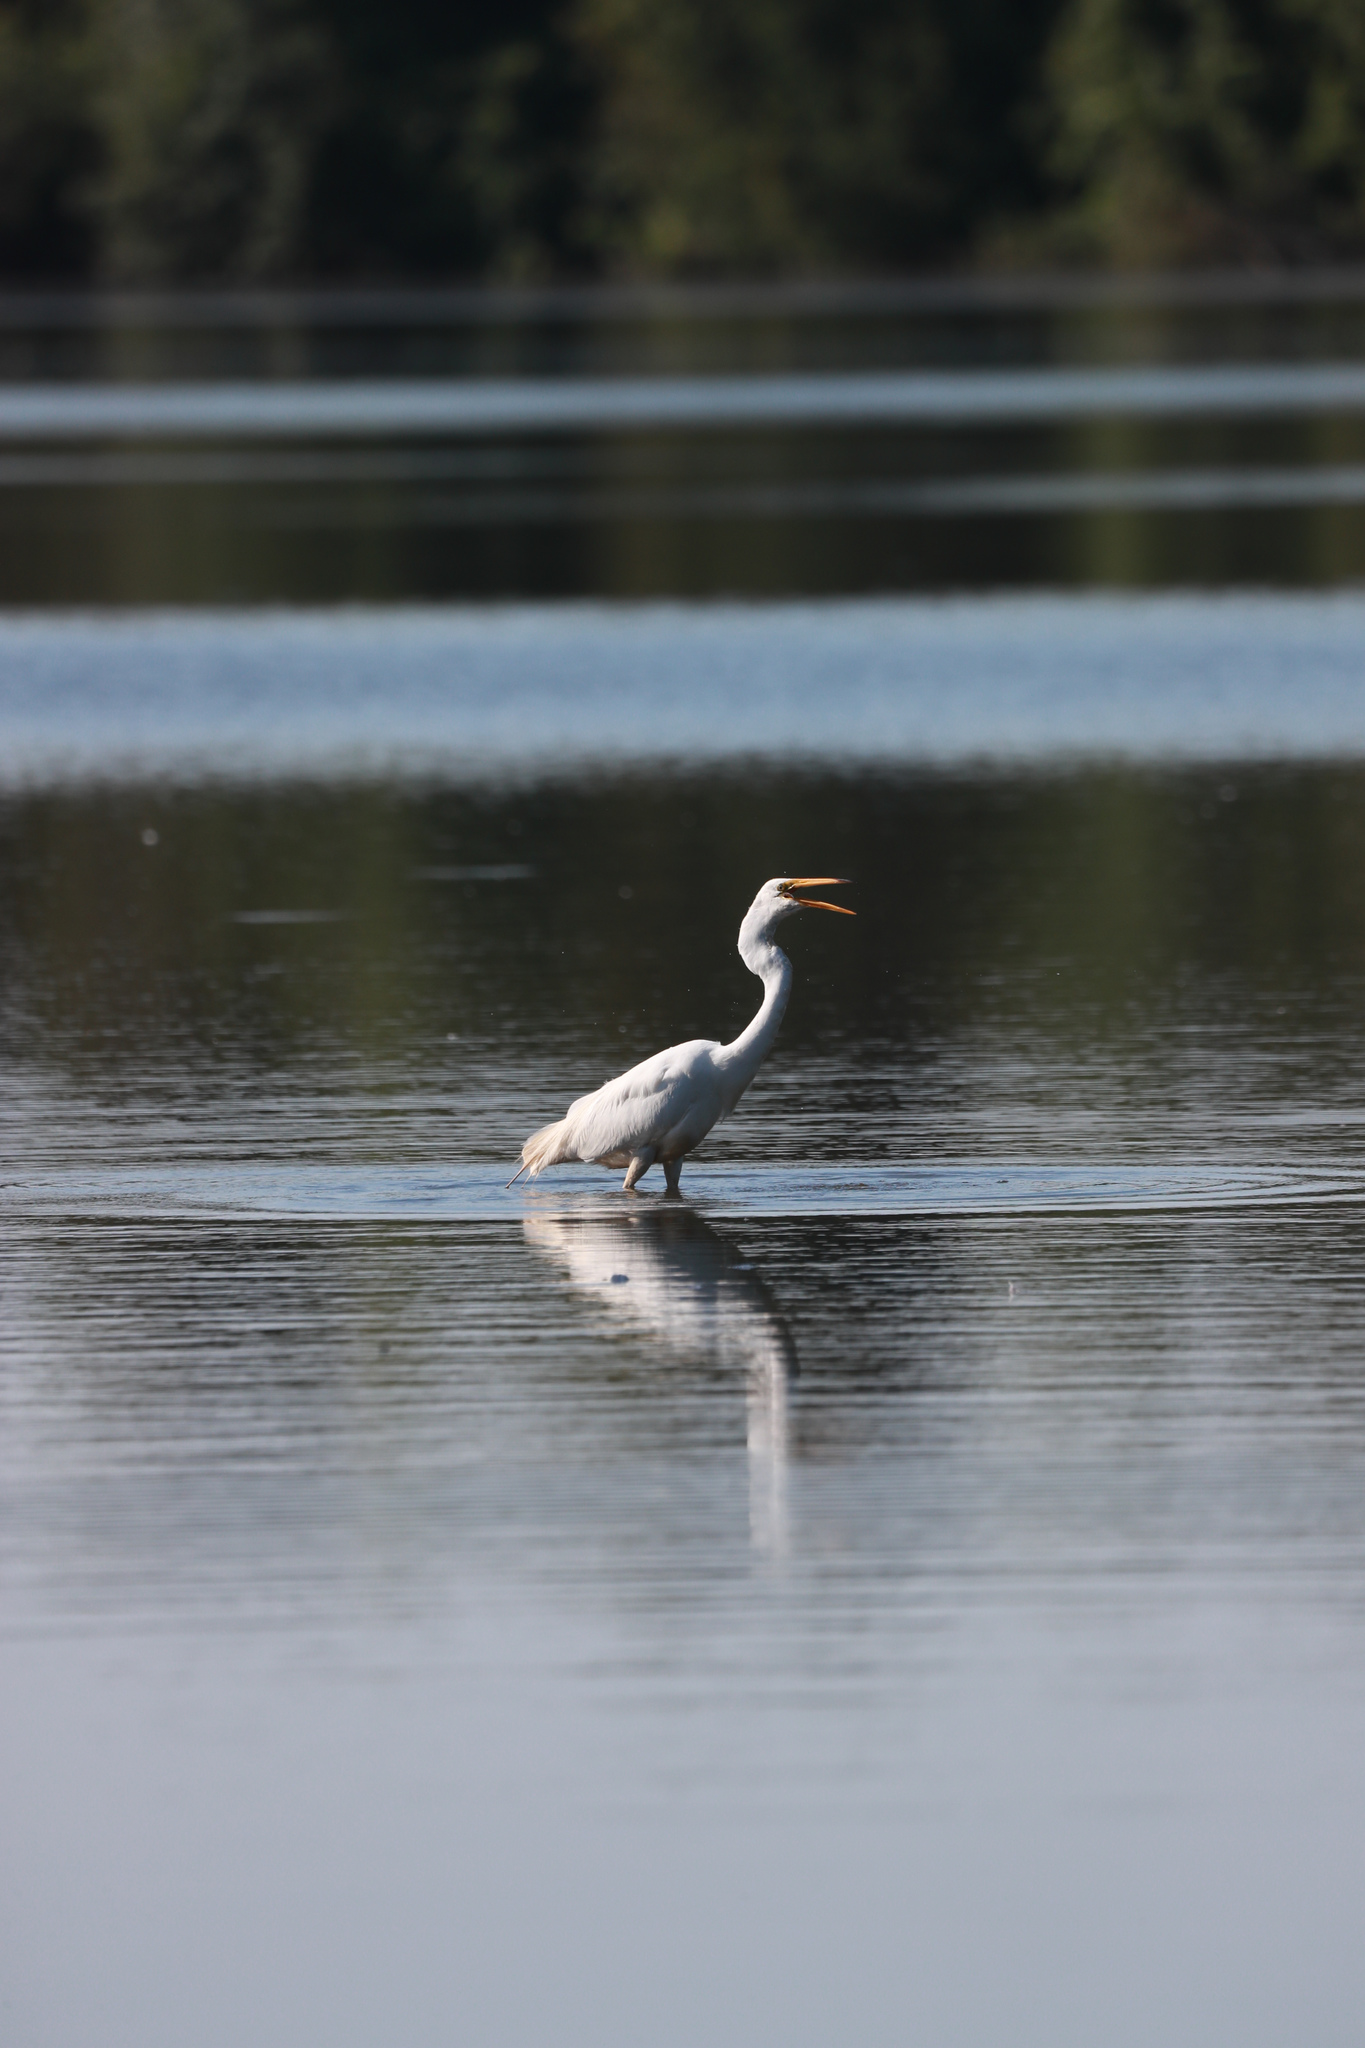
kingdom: Animalia
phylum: Chordata
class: Aves
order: Pelecaniformes
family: Ardeidae
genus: Ardea
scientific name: Ardea alba
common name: Great egret
